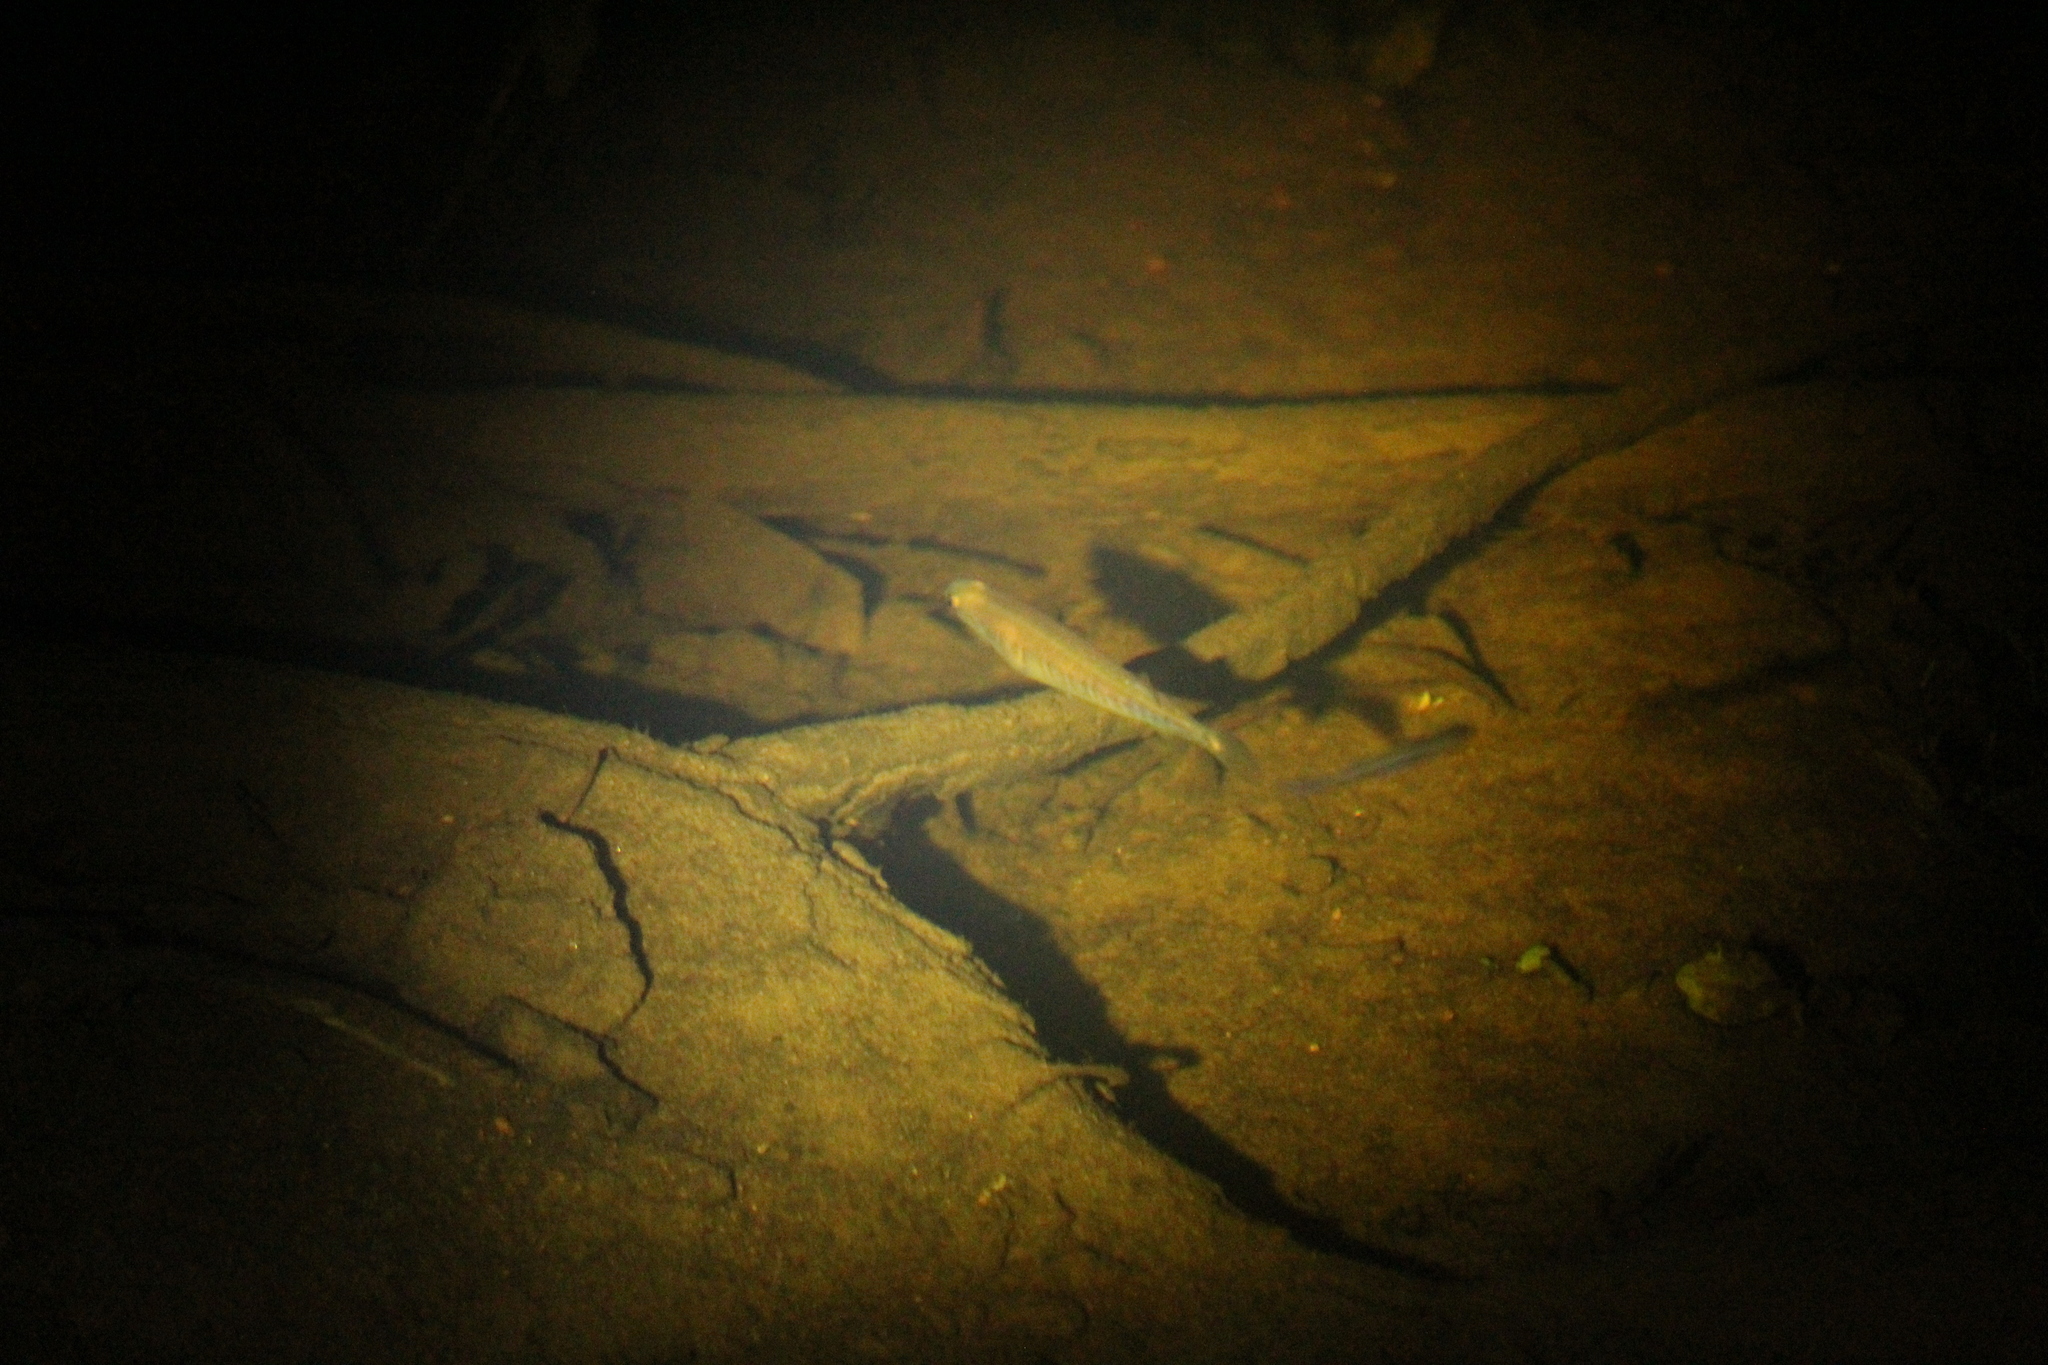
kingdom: Animalia
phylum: Chordata
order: Osmeriformes
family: Galaxiidae
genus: Galaxias
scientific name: Galaxias occidentalis
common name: Western minnow
